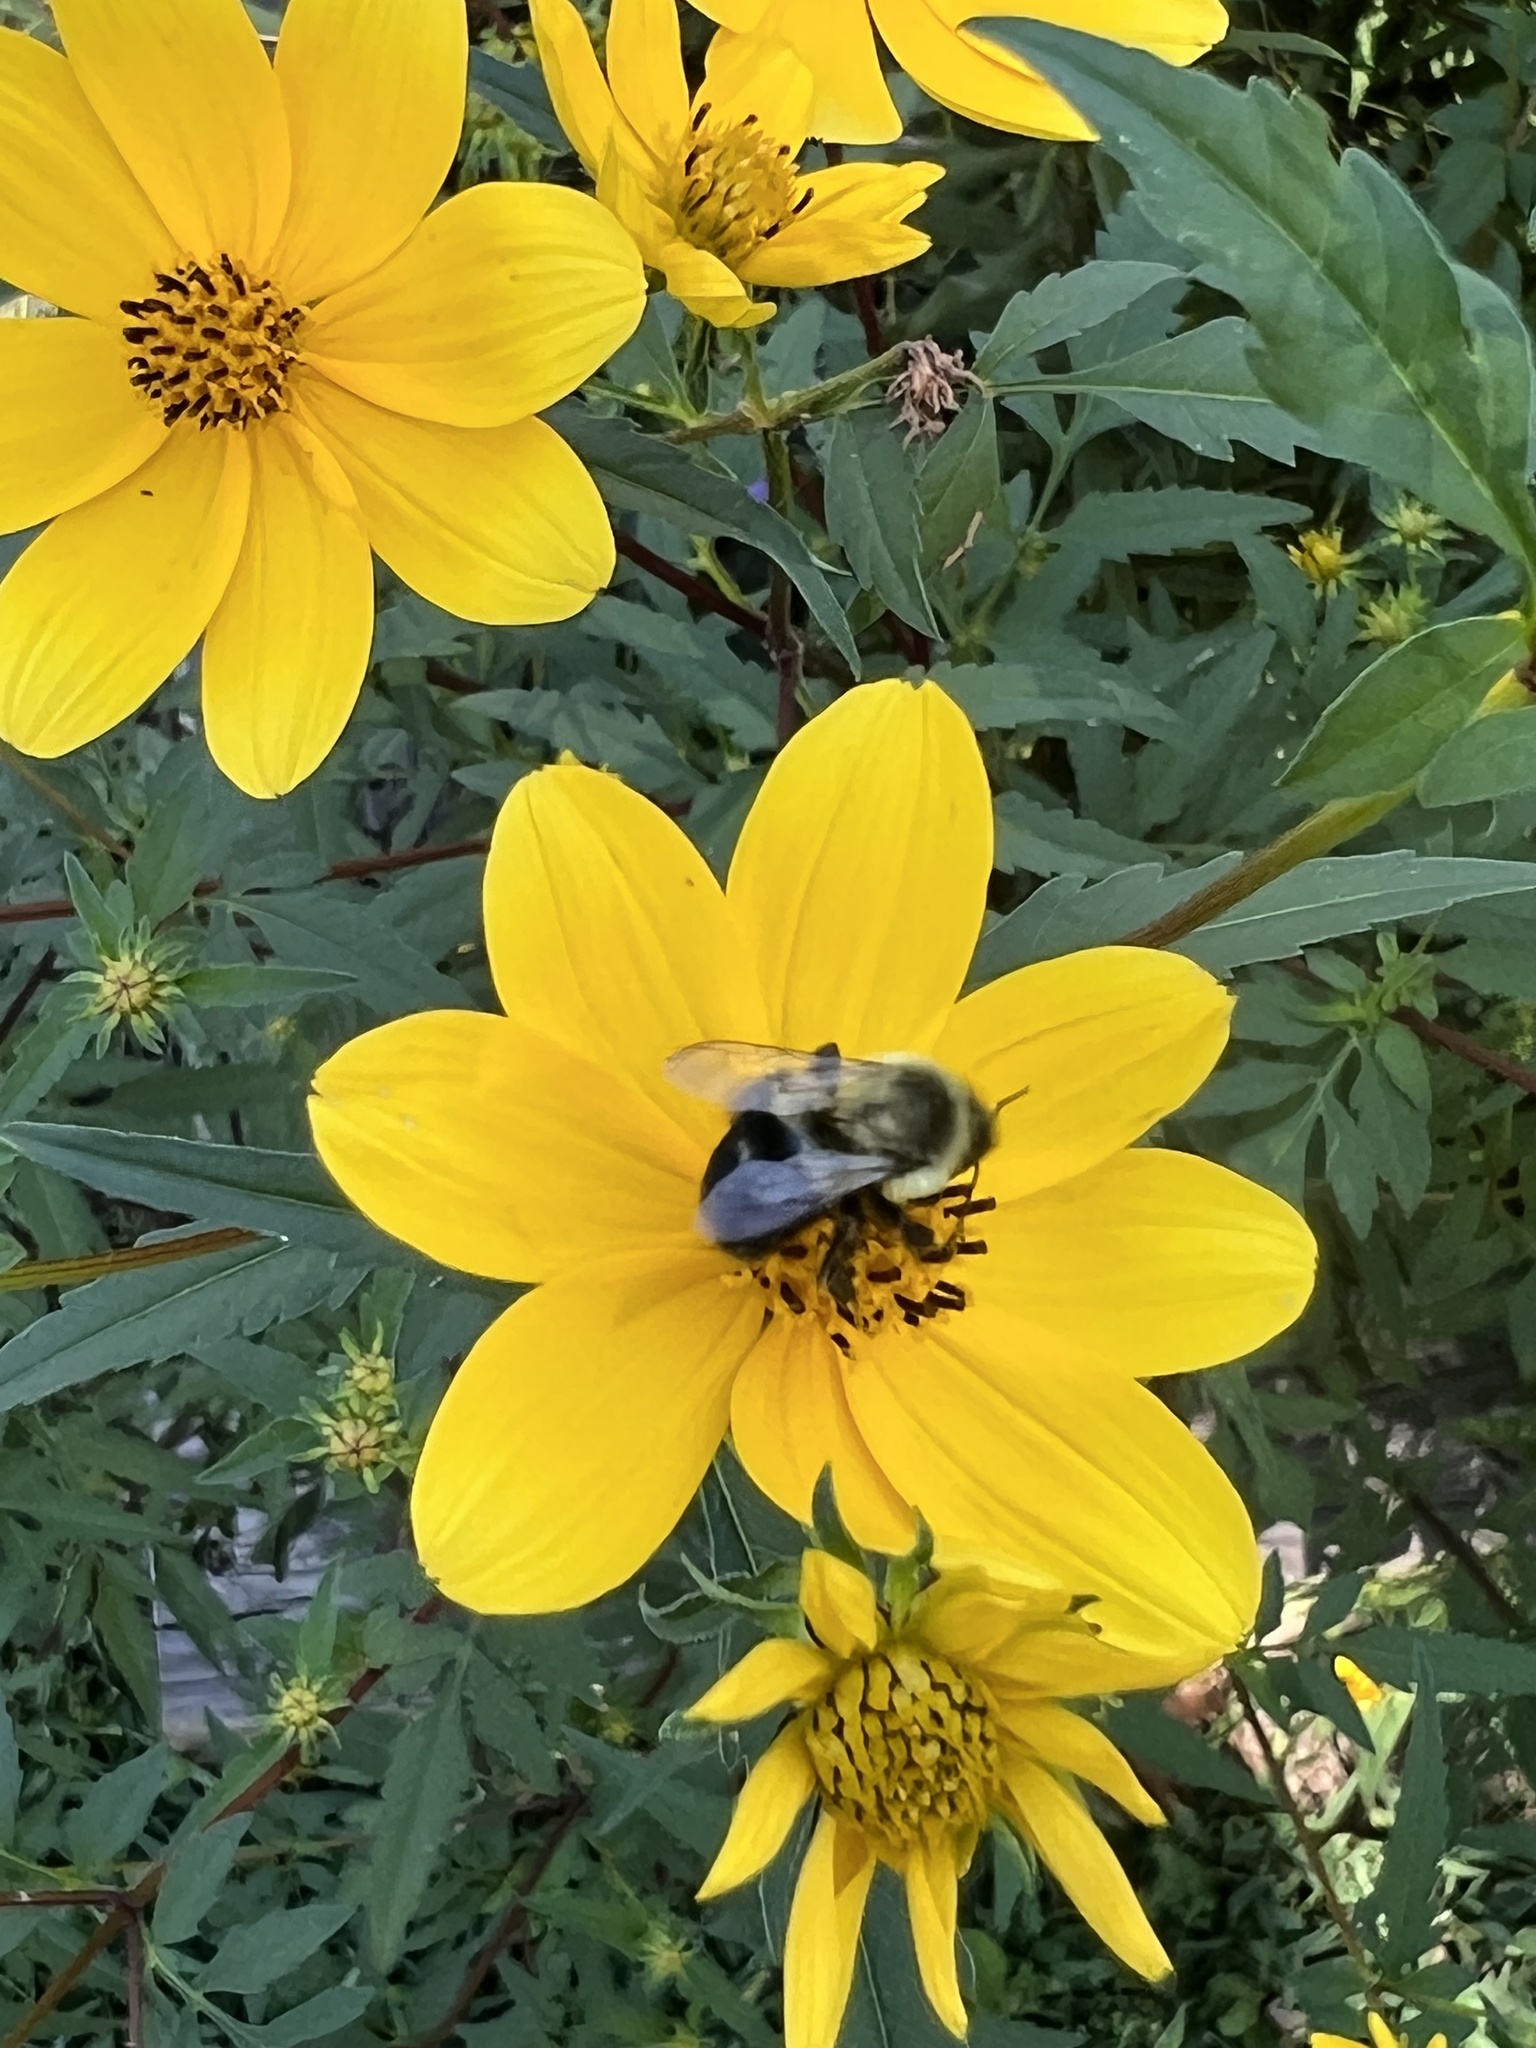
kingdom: Animalia
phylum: Arthropoda
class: Insecta
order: Hymenoptera
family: Apidae
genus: Bombus
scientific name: Bombus impatiens
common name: Common eastern bumble bee
